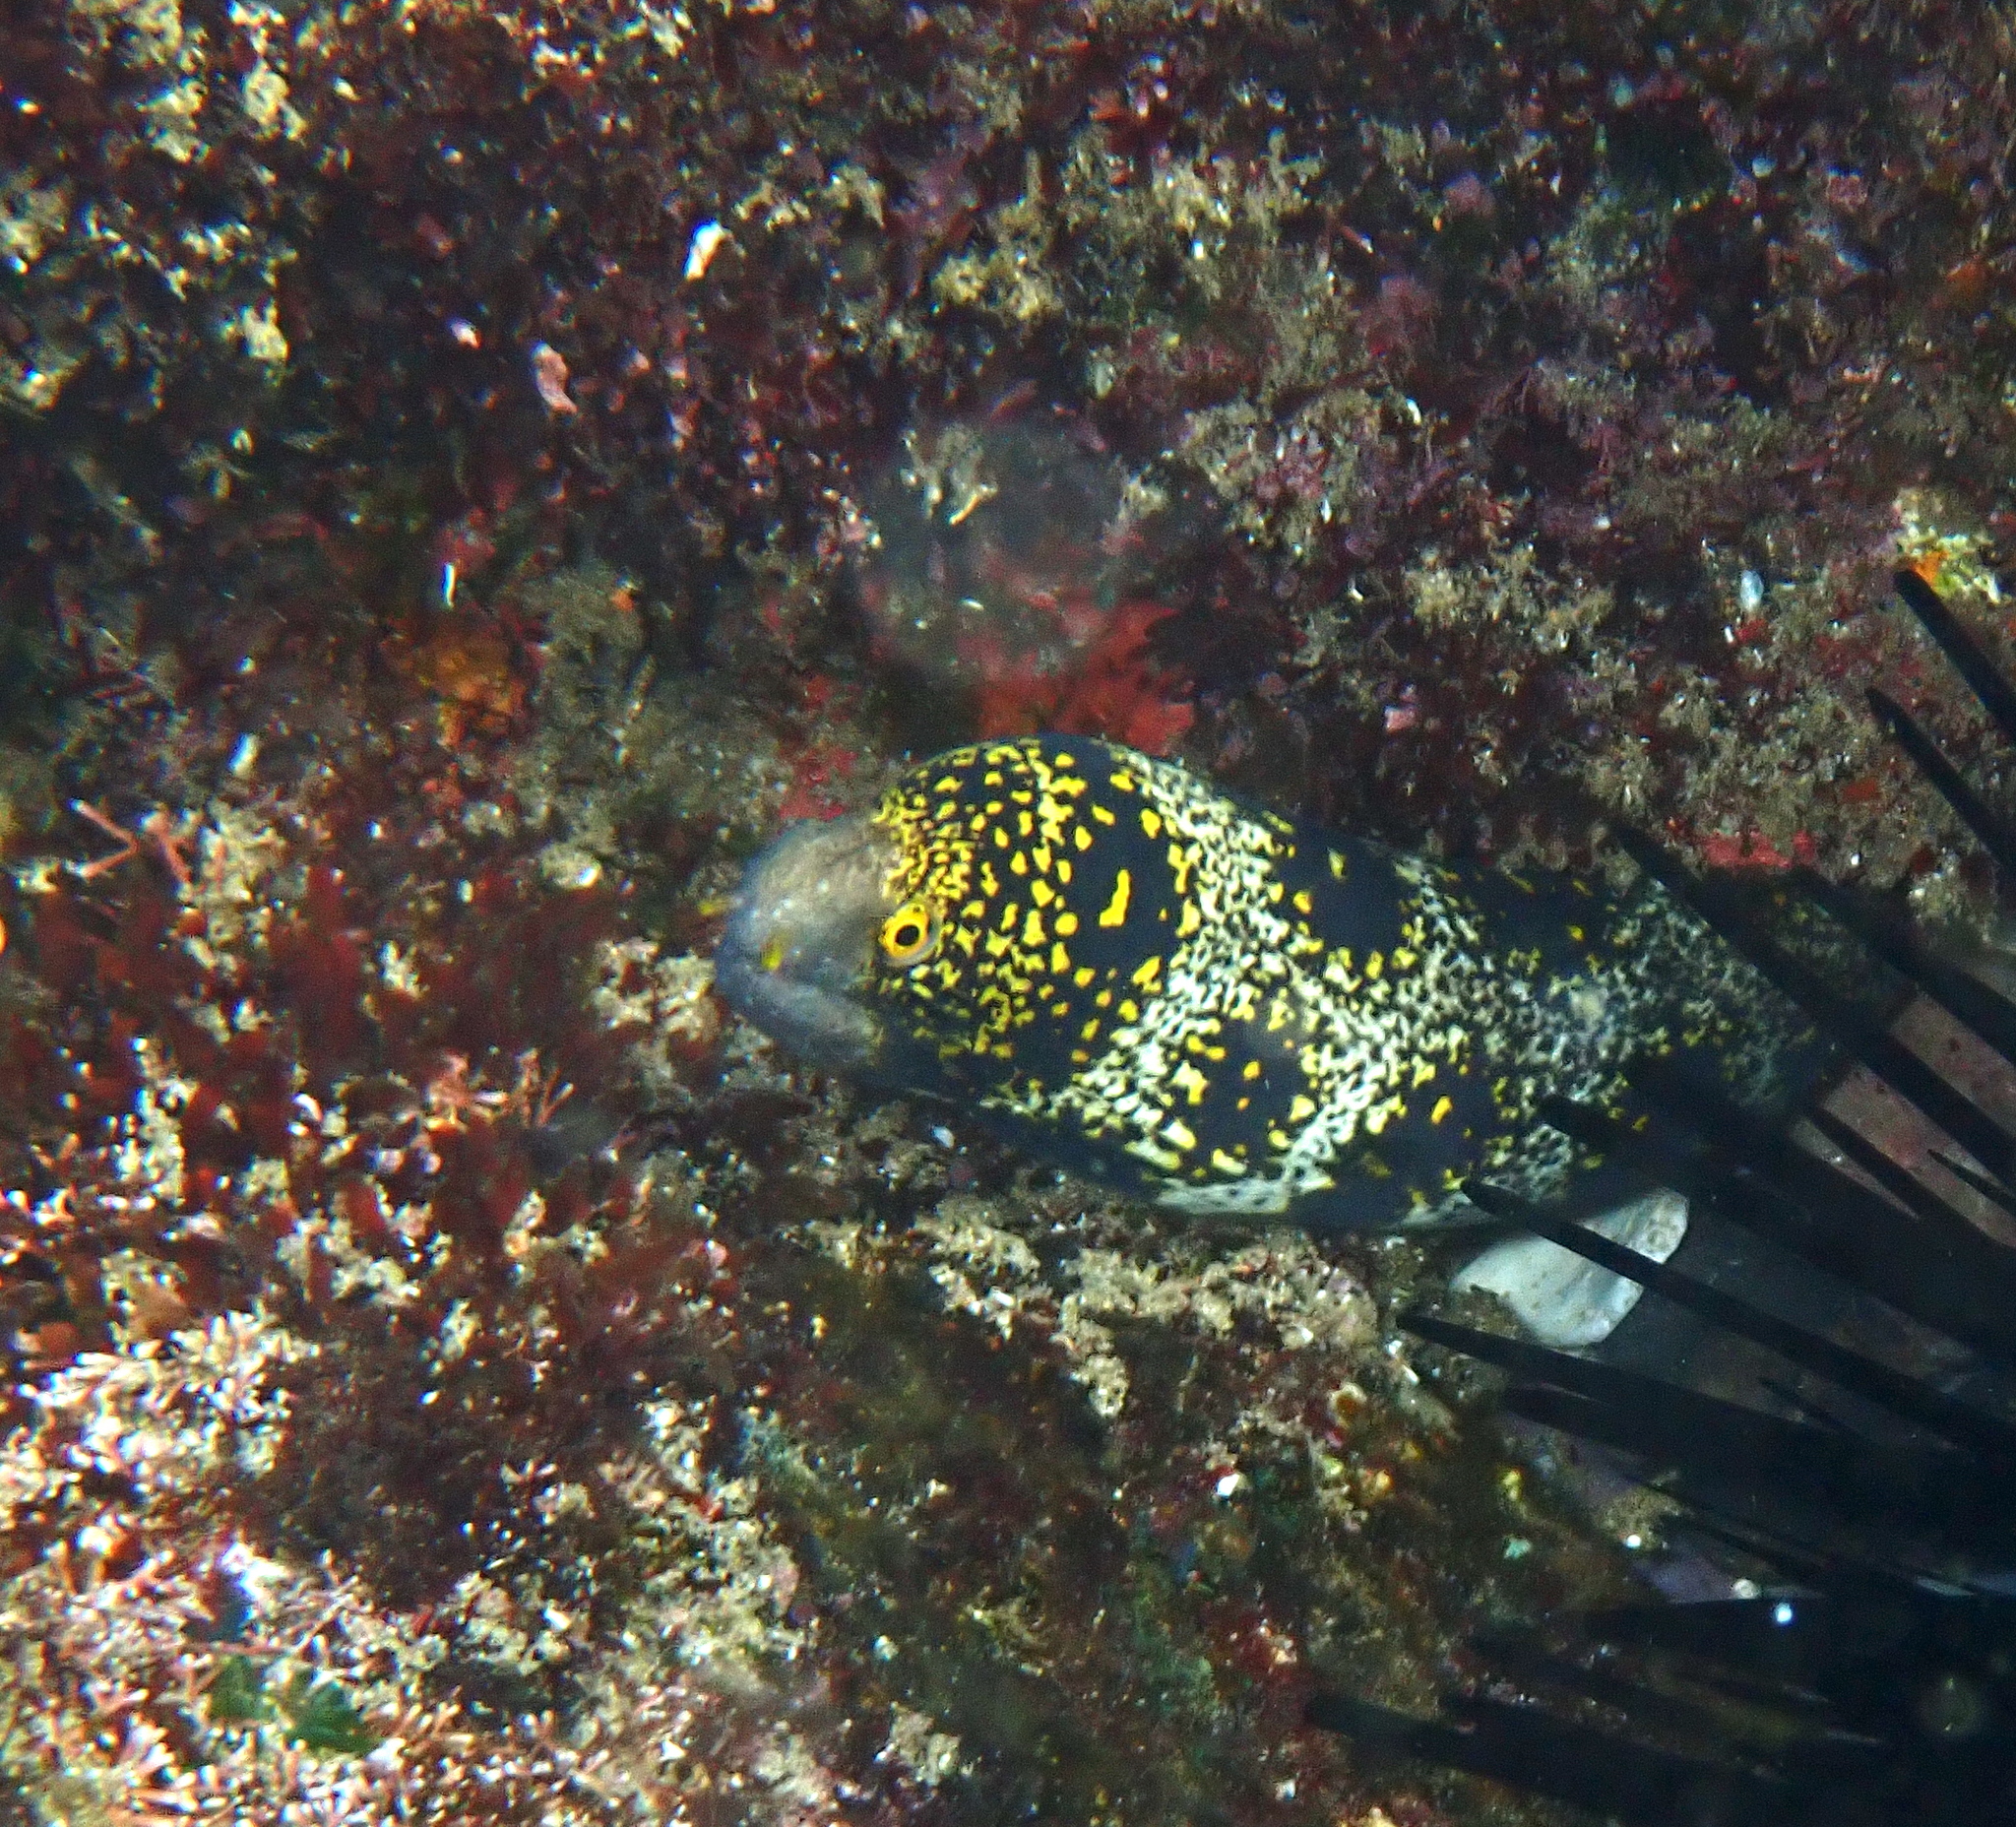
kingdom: Animalia
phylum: Chordata
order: Anguilliformes
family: Muraenidae
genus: Echidna
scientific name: Echidna nebulosa
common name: Snowflake moray
